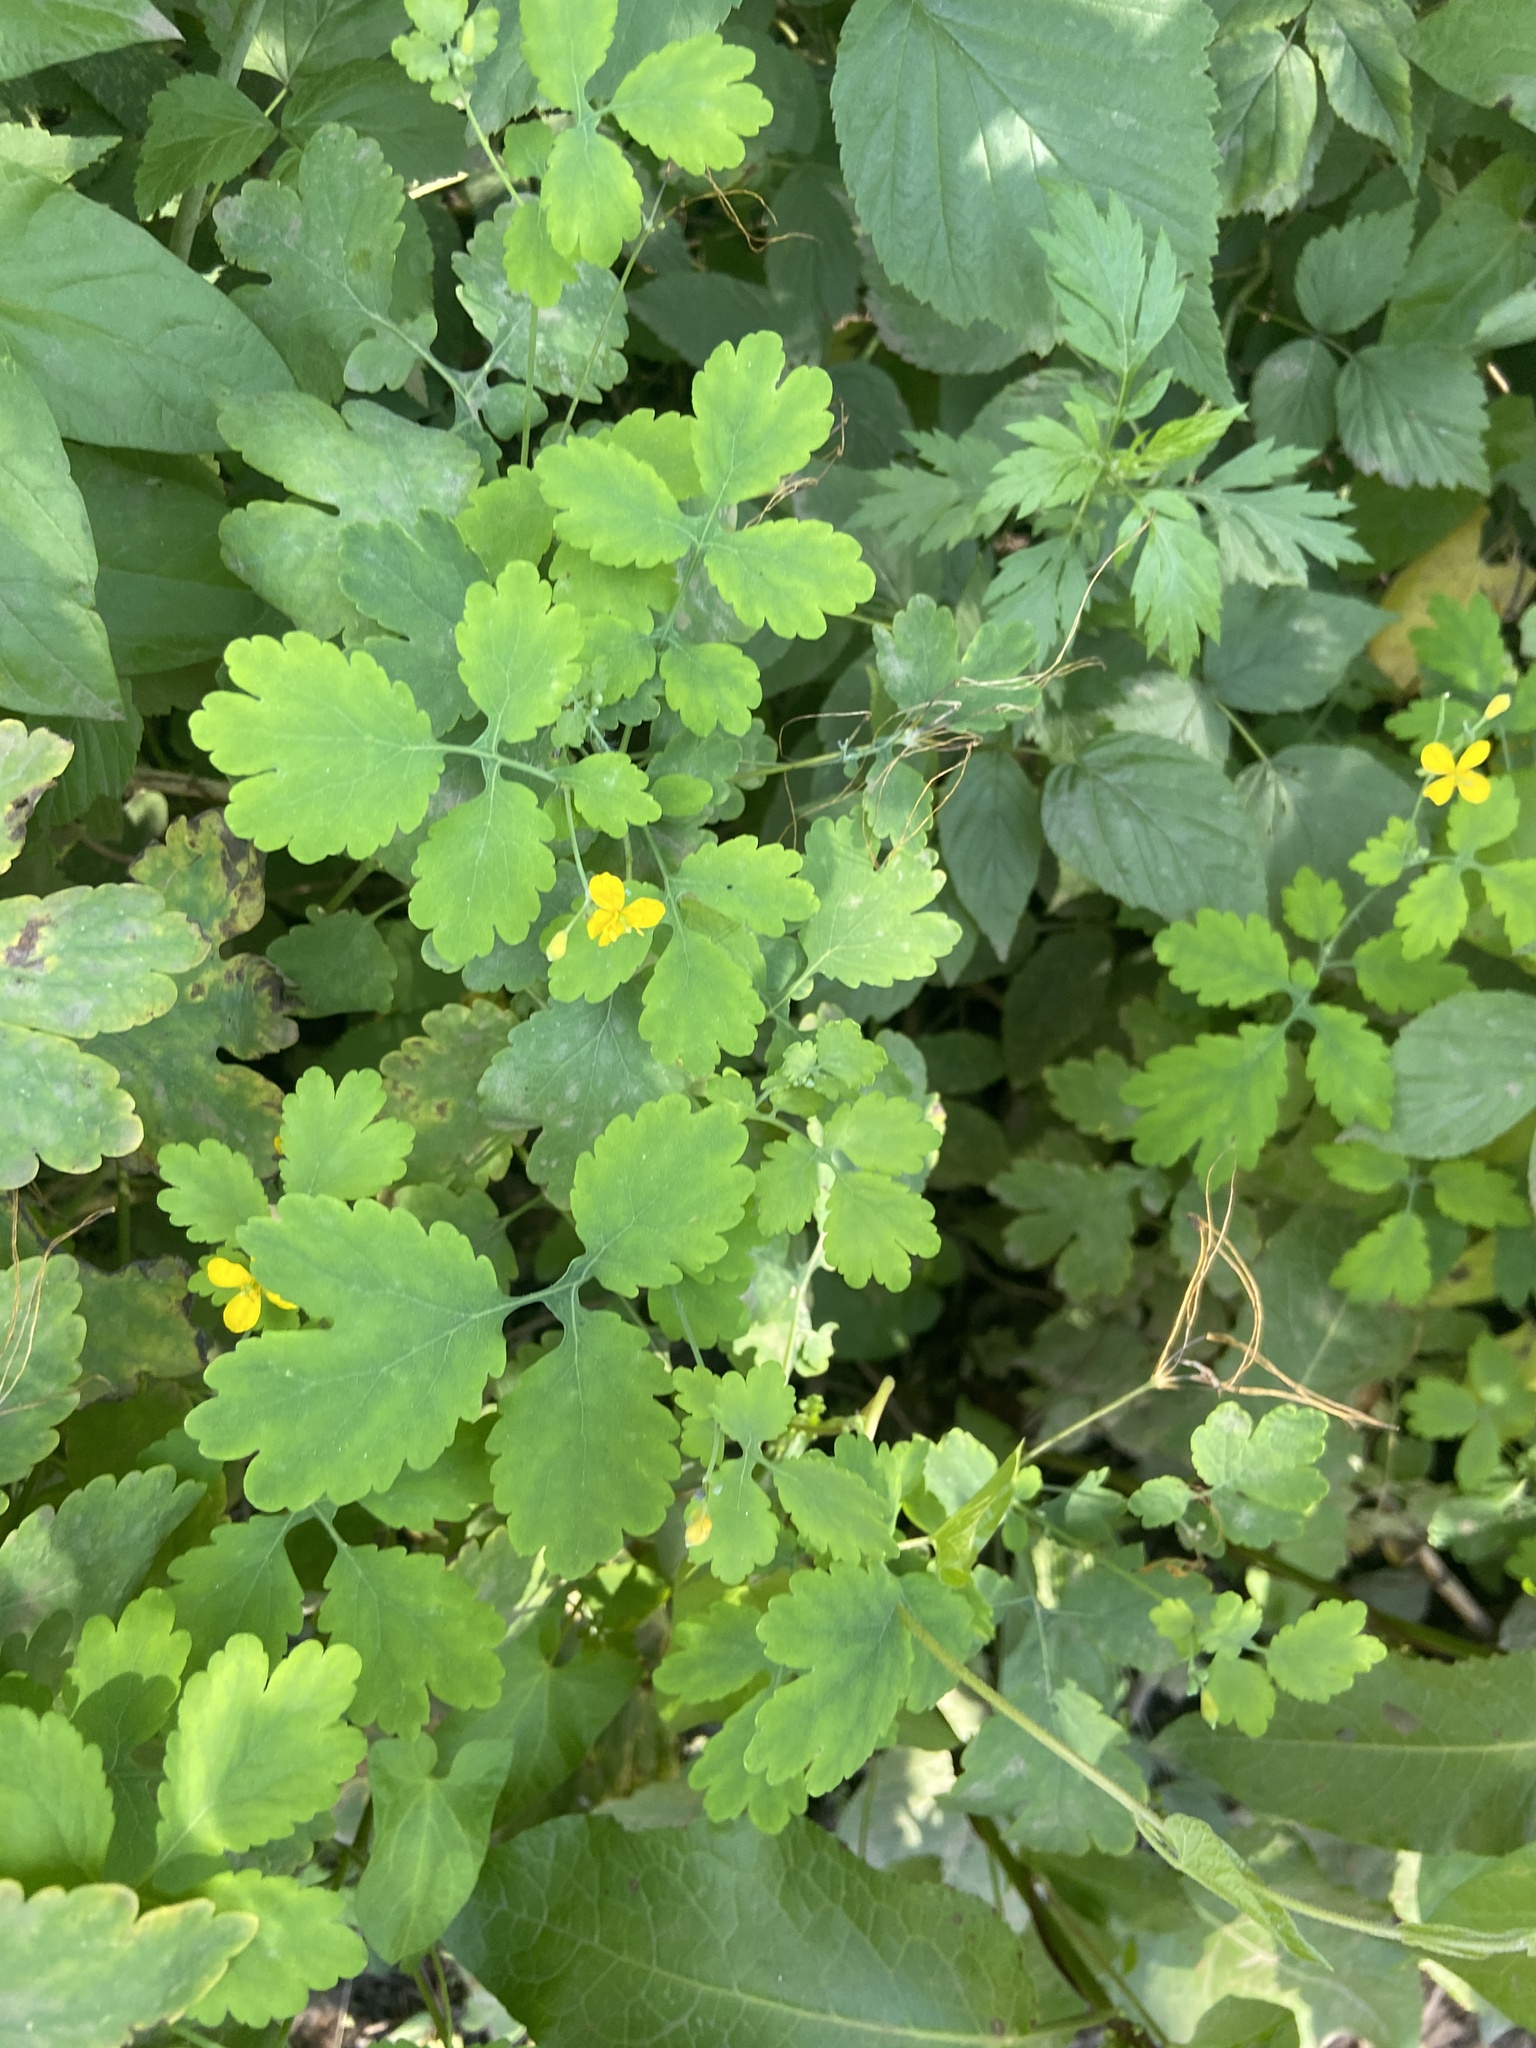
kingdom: Plantae
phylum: Tracheophyta
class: Magnoliopsida
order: Ranunculales
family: Papaveraceae
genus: Chelidonium
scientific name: Chelidonium majus
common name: Greater celandine
